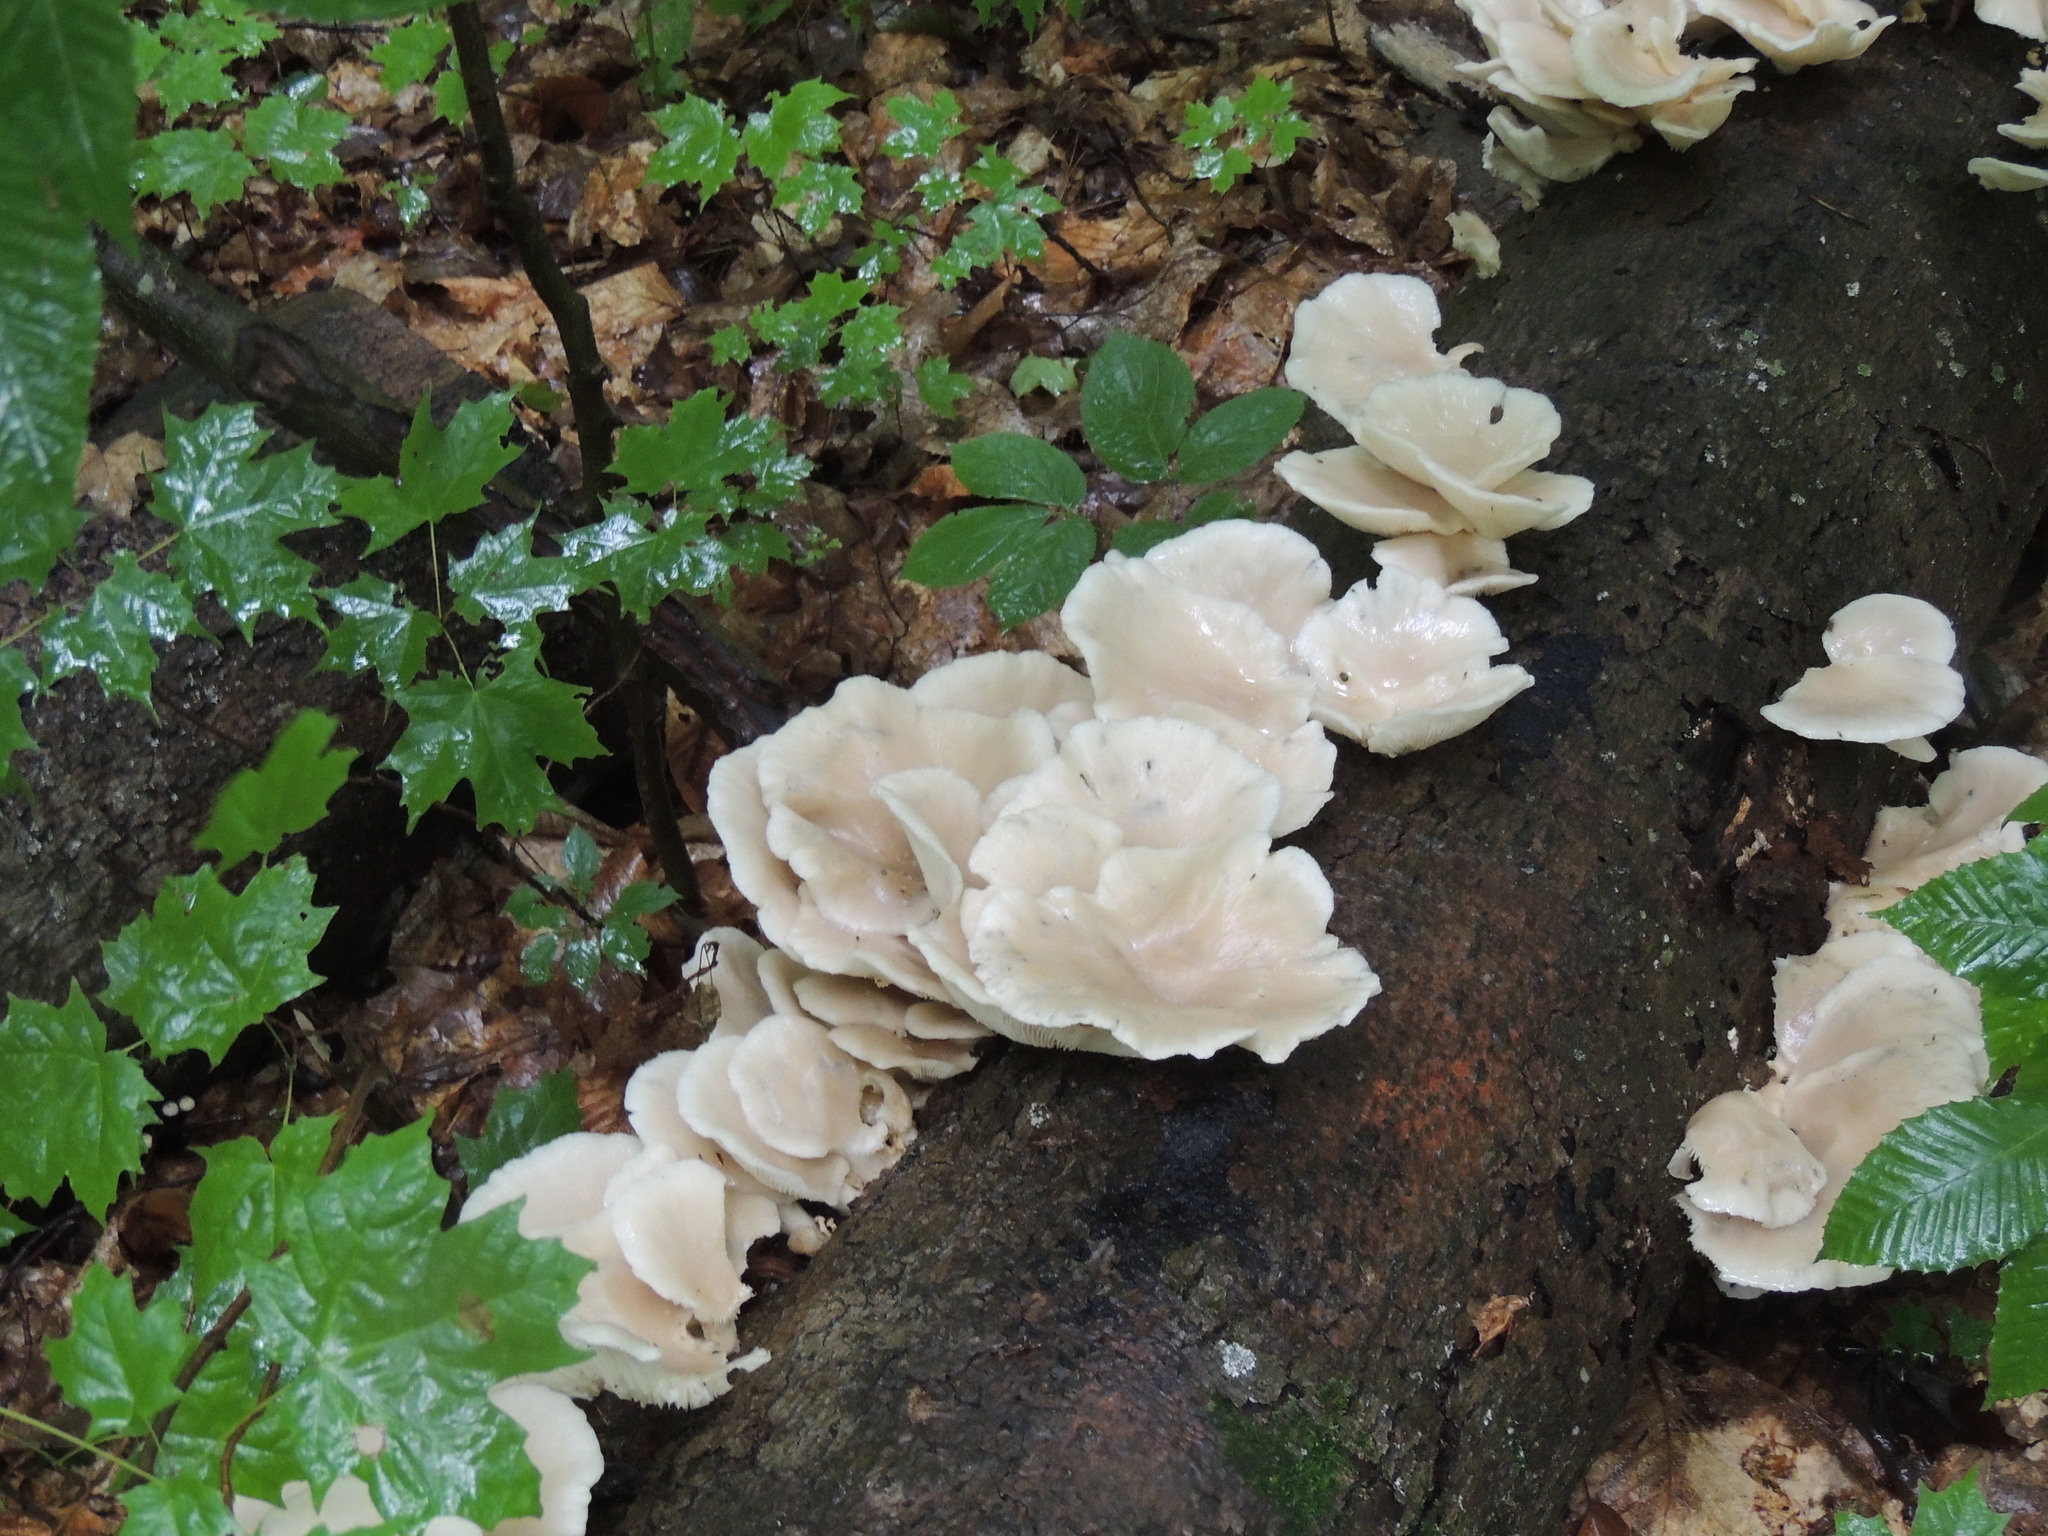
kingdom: Fungi
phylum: Basidiomycota
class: Agaricomycetes
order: Agaricales
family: Pleurotaceae
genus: Pleurotus
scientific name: Pleurotus ostreatus
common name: Oyster mushroom
